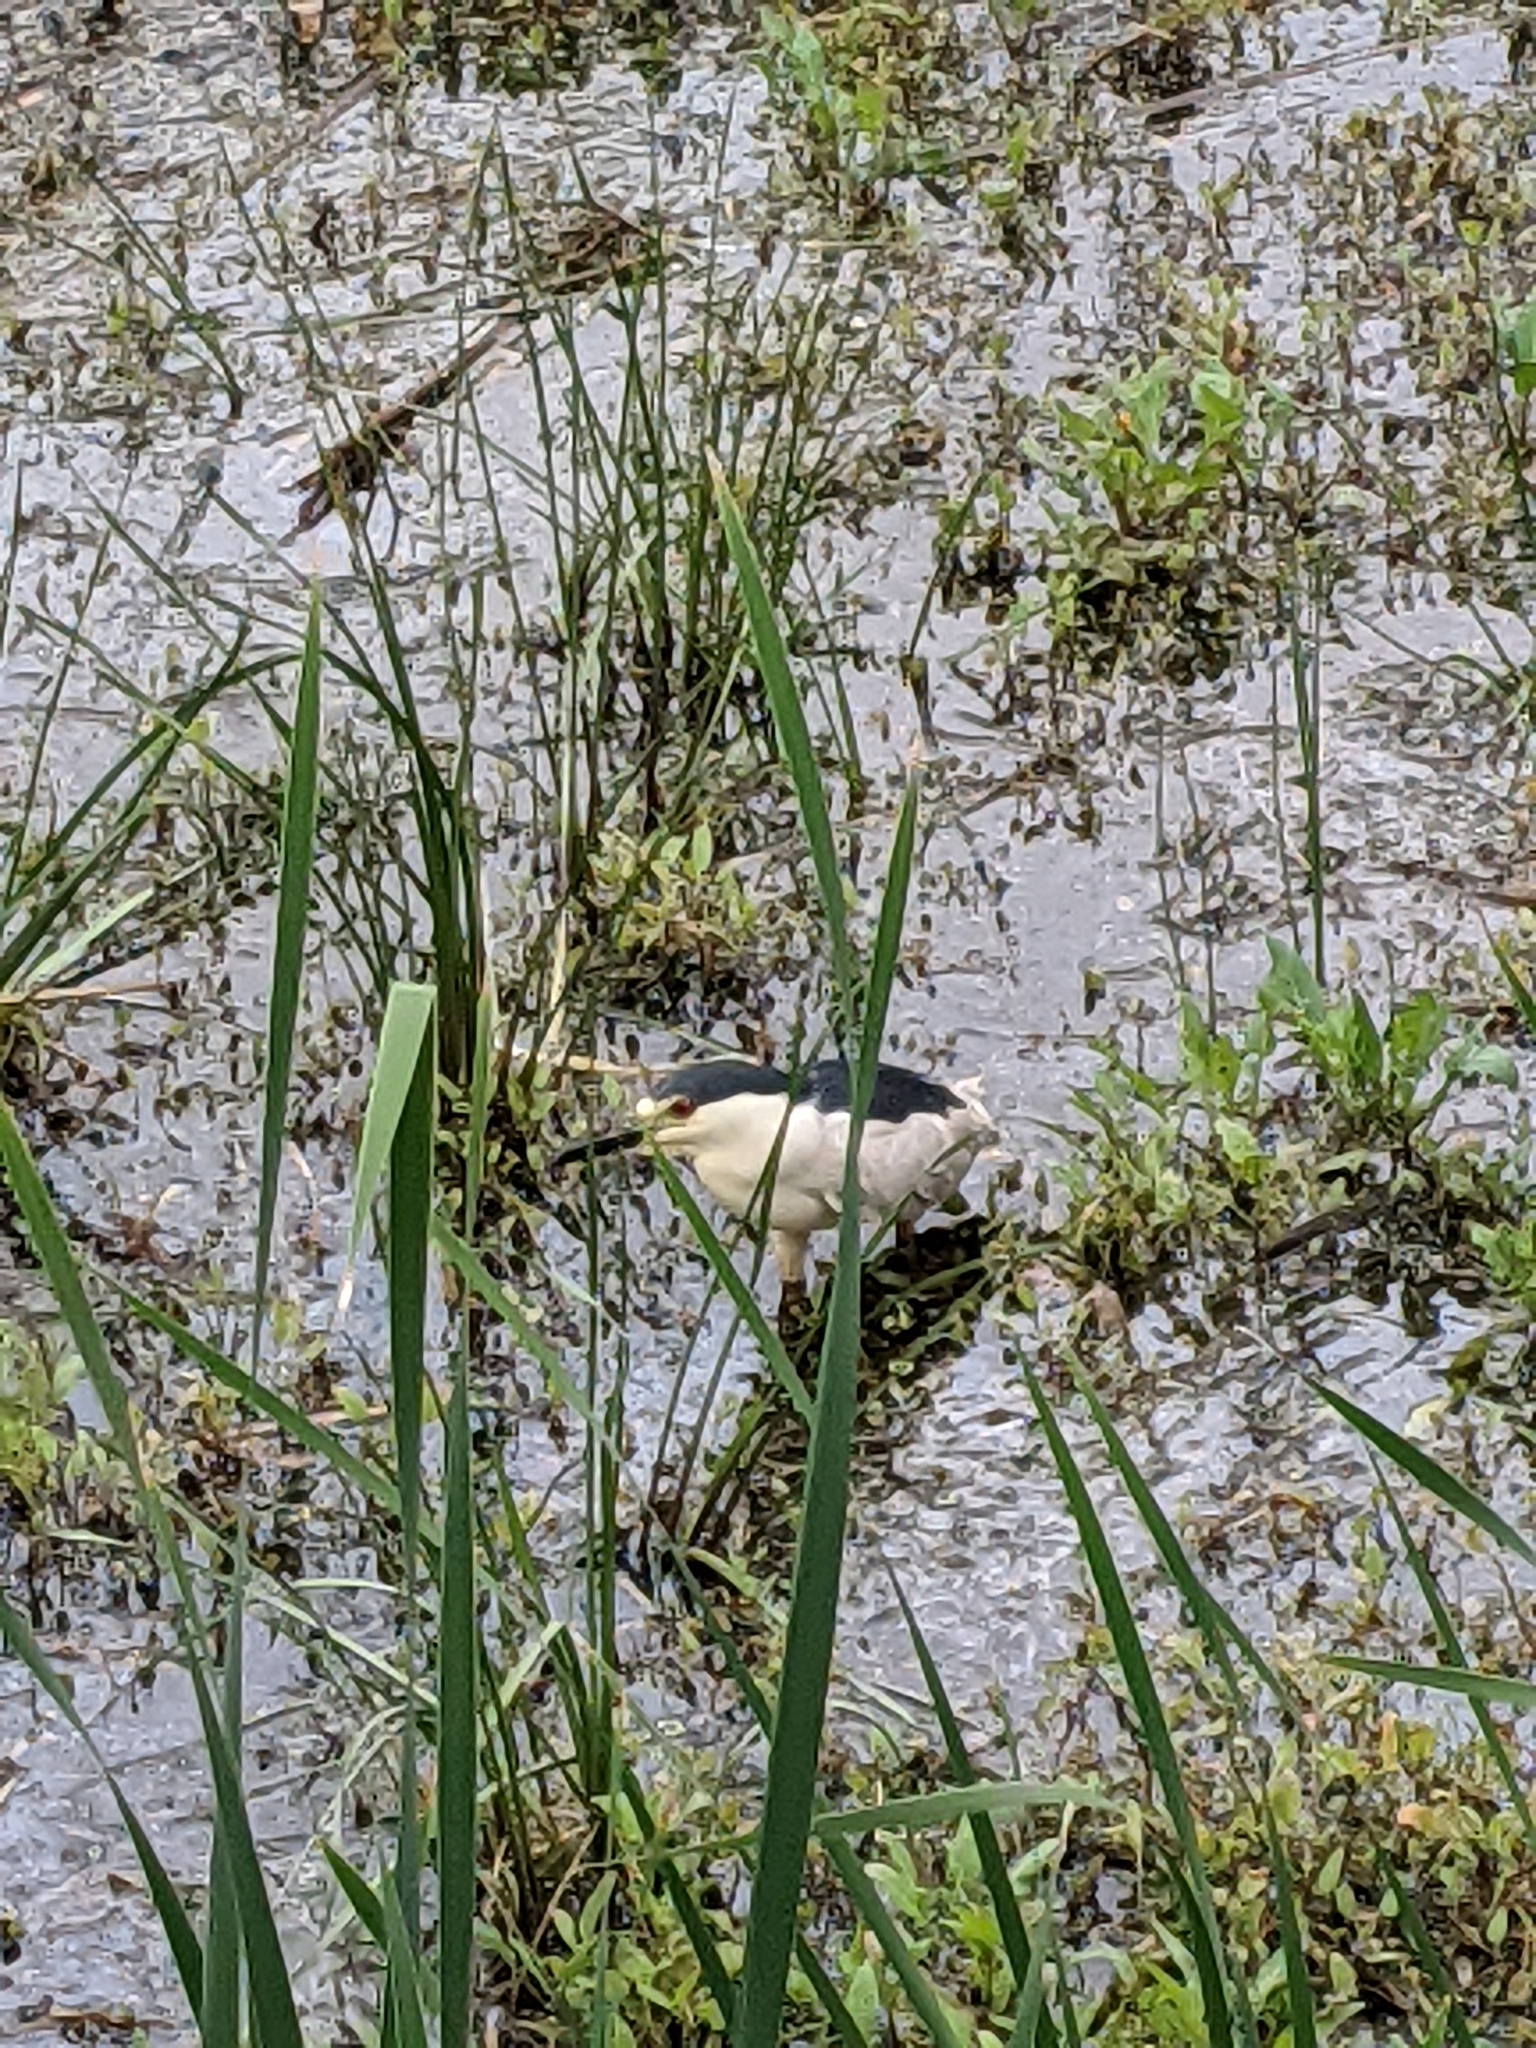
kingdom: Animalia
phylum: Chordata
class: Aves
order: Pelecaniformes
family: Ardeidae
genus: Nycticorax
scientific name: Nycticorax nycticorax
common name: Black-crowned night heron
